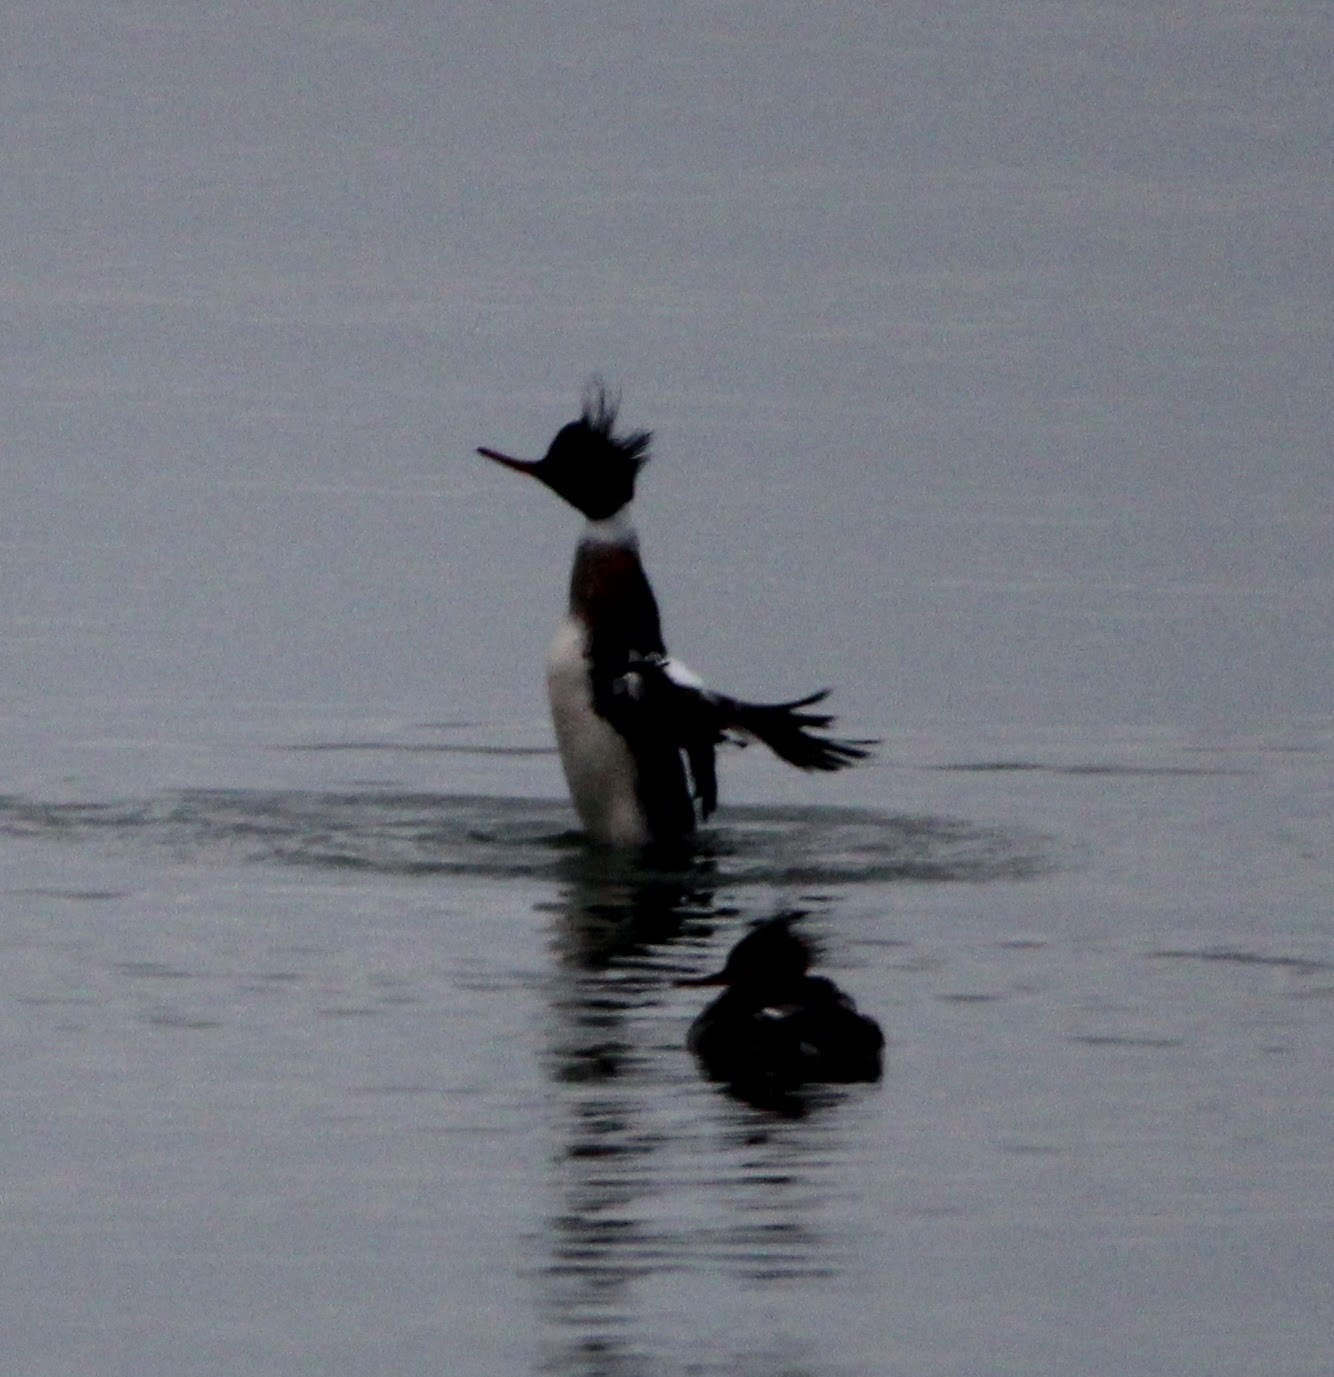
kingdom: Animalia
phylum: Chordata
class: Aves
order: Anseriformes
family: Anatidae
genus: Mergus
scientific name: Mergus serrator
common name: Red-breasted merganser
